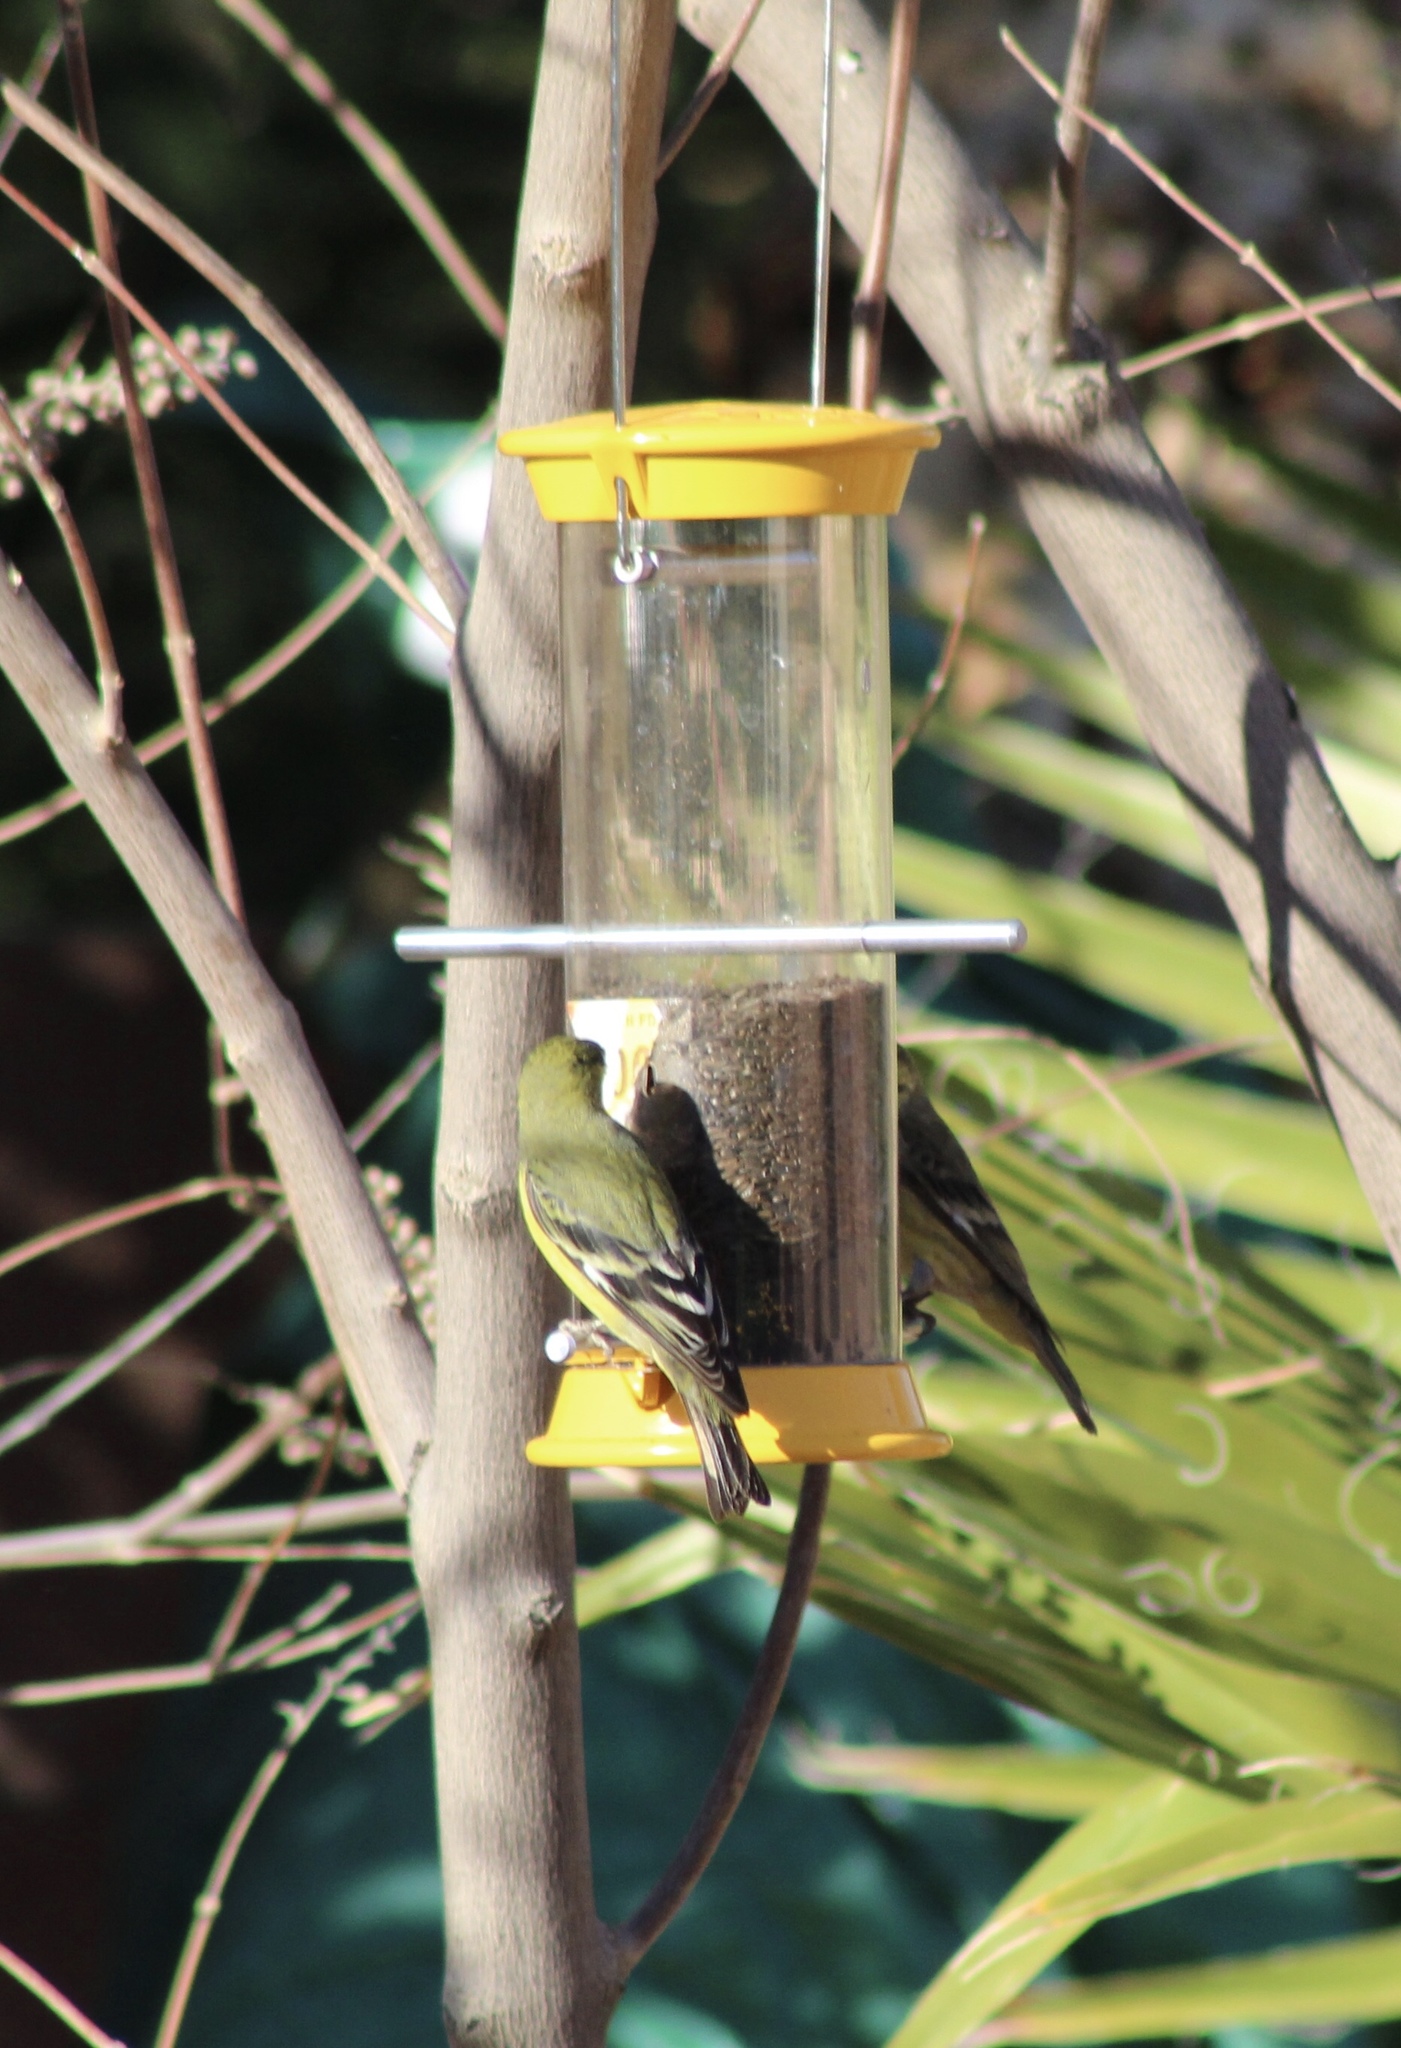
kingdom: Animalia
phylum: Chordata
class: Aves
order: Passeriformes
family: Fringillidae
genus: Spinus
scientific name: Spinus psaltria
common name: Lesser goldfinch
